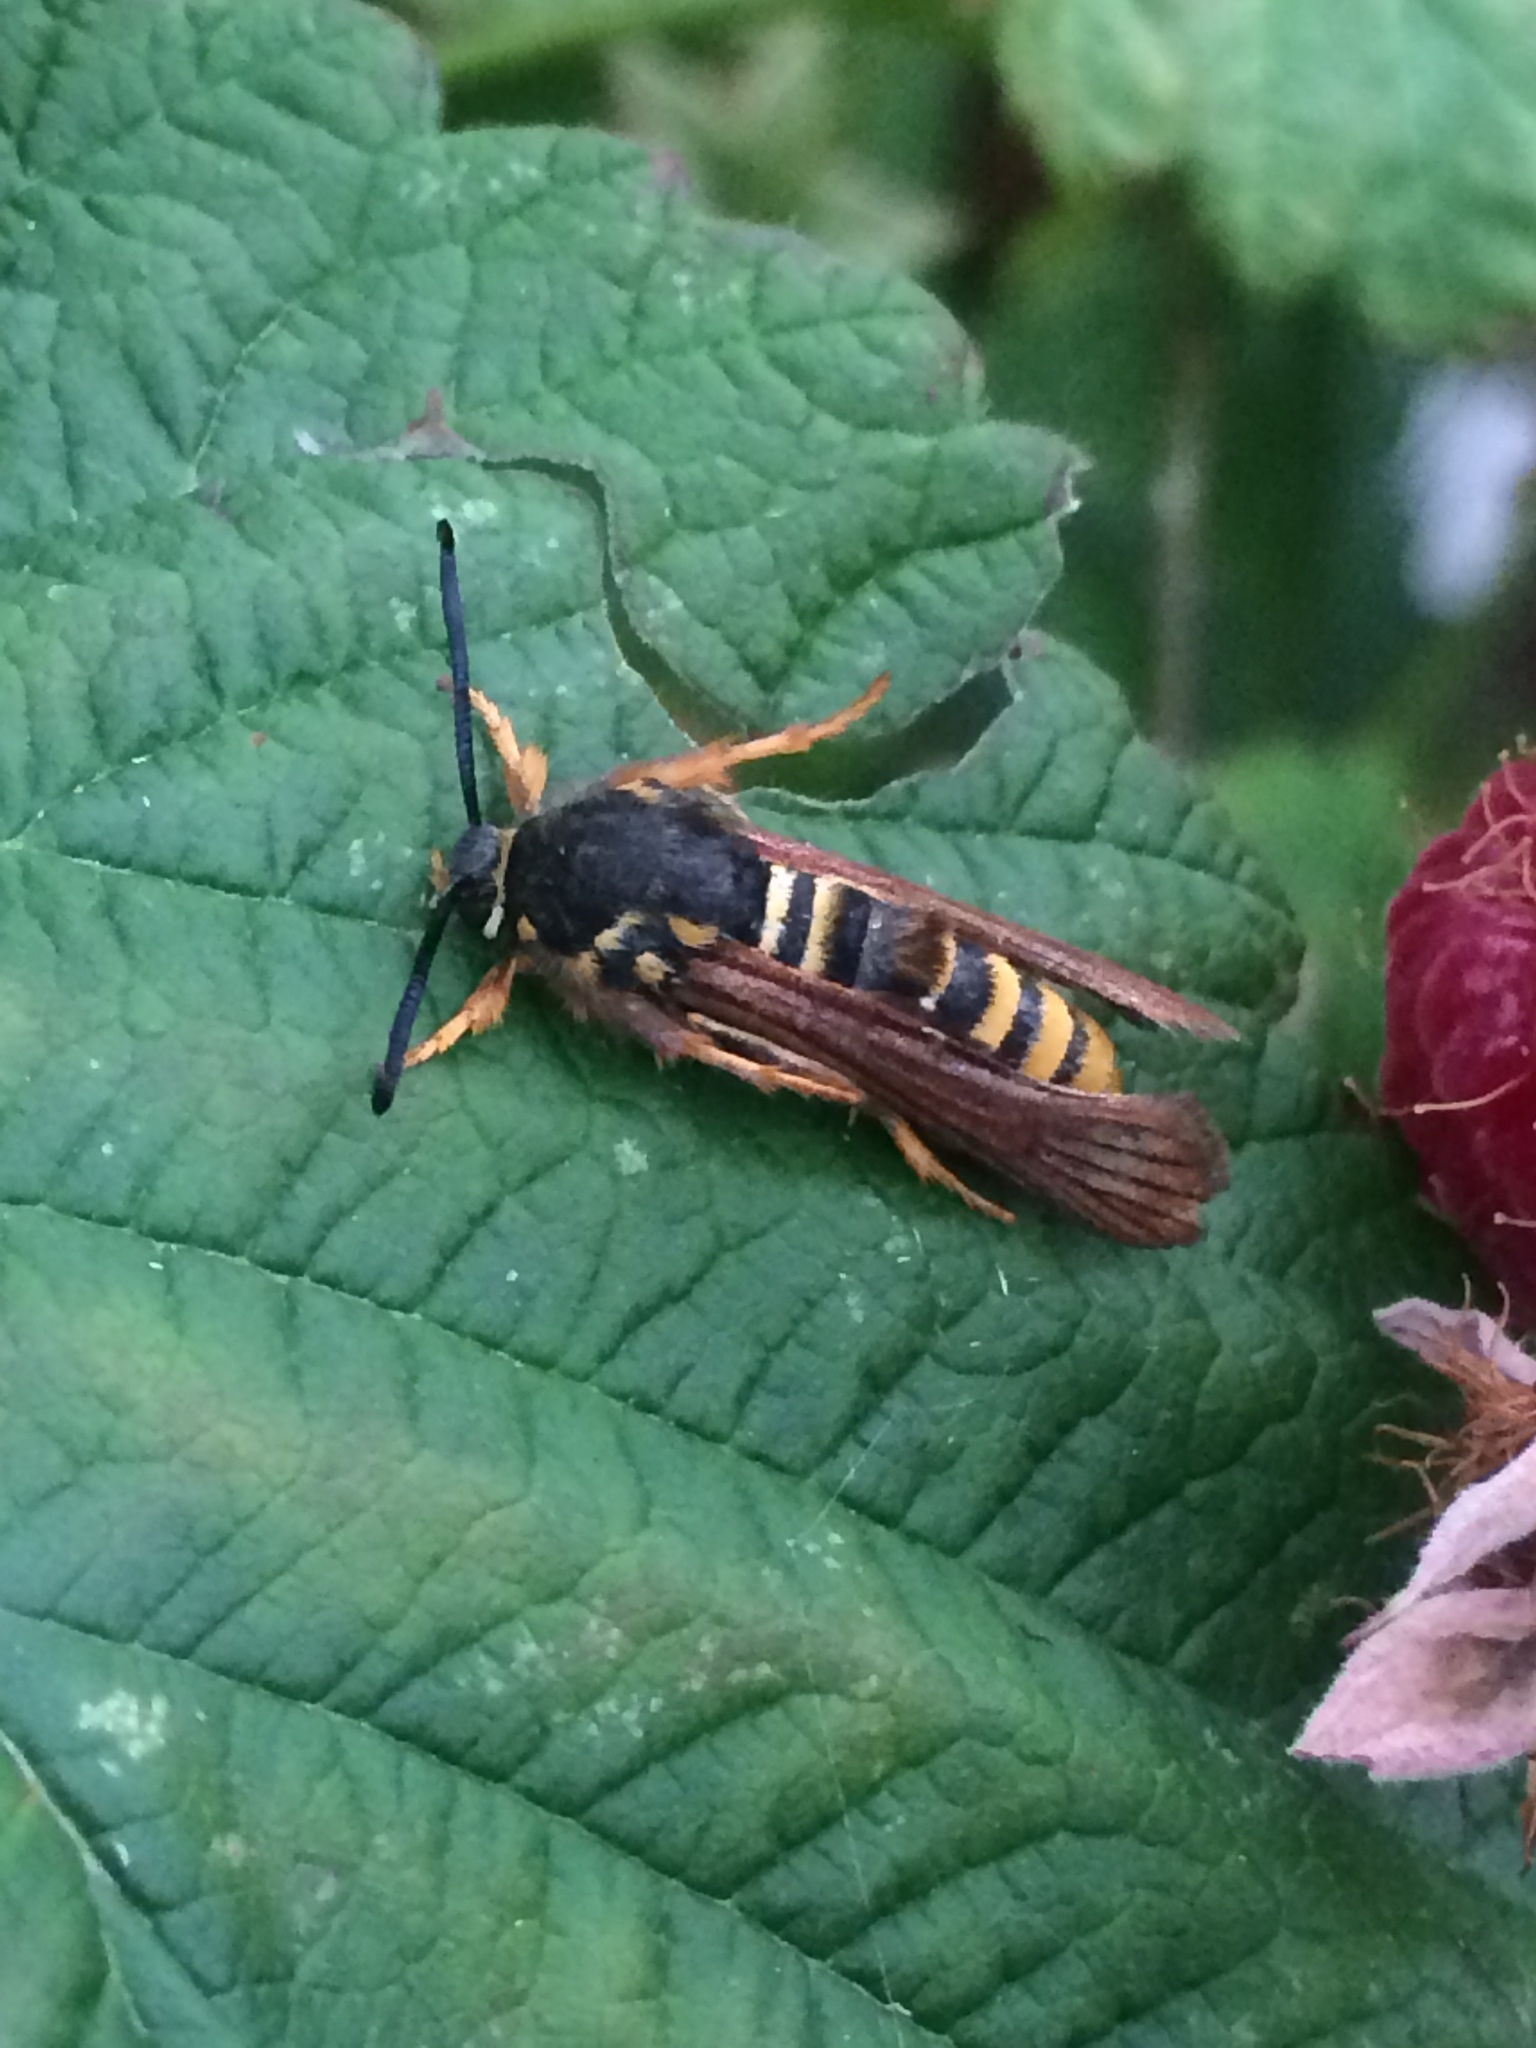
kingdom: Animalia
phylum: Arthropoda
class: Insecta
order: Lepidoptera
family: Sesiidae
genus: Pennisetia
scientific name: Pennisetia marginatum
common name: Raspberry crown borer
